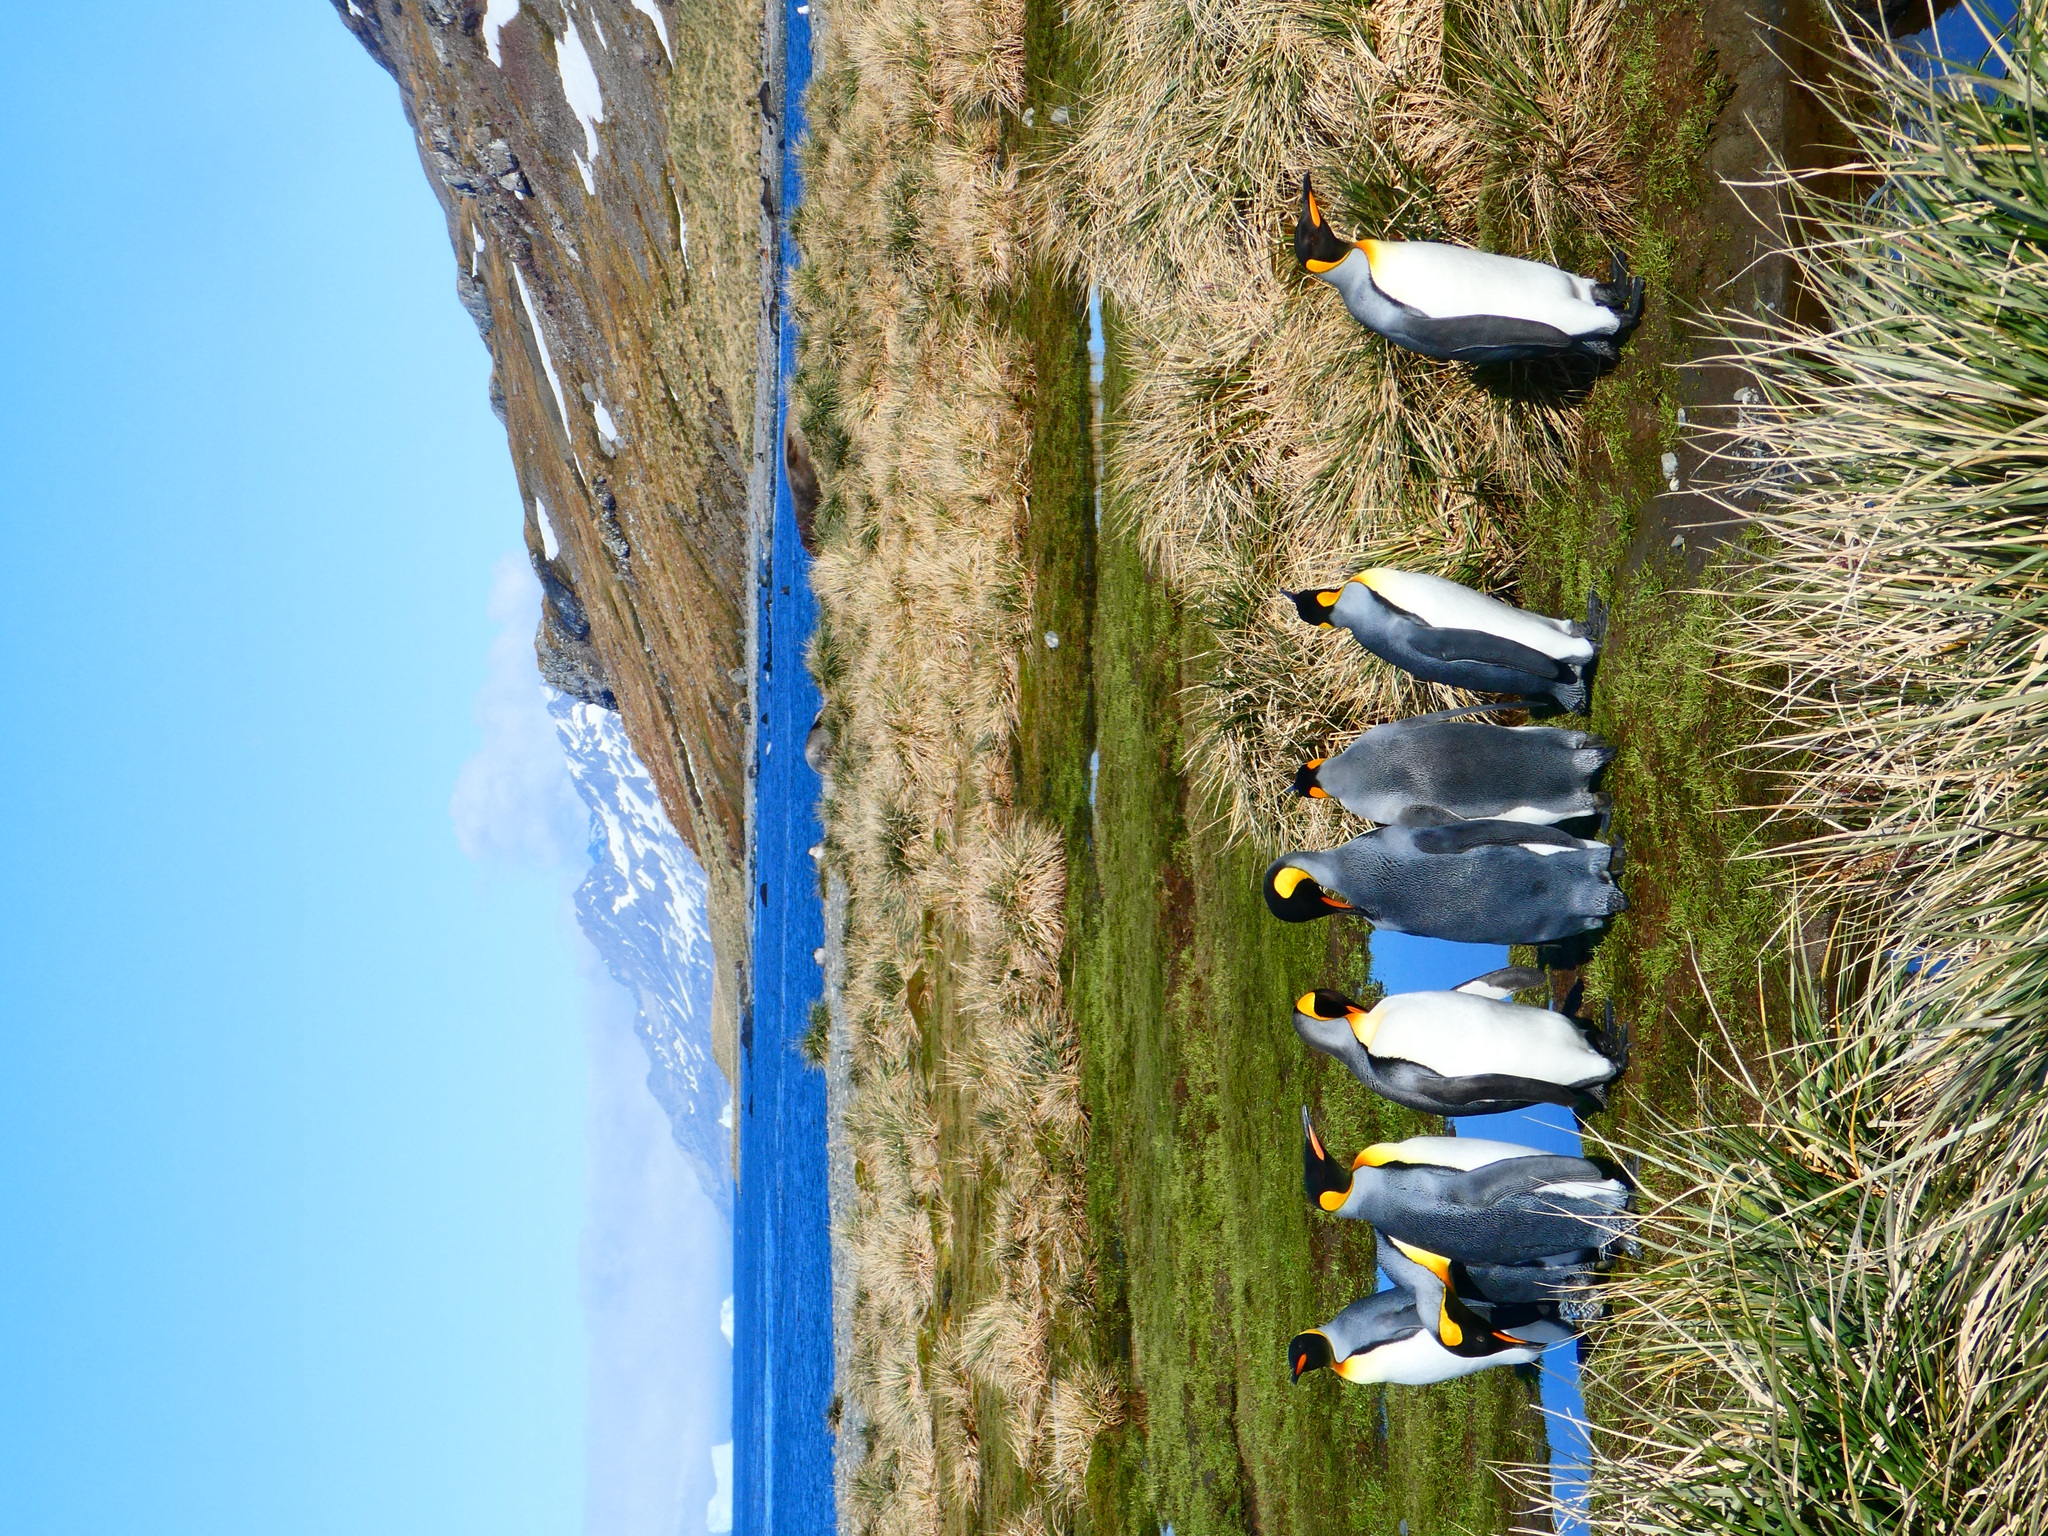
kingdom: Animalia
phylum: Chordata
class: Aves
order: Sphenisciformes
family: Spheniscidae
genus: Aptenodytes
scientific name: Aptenodytes patagonicus
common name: King penguin
